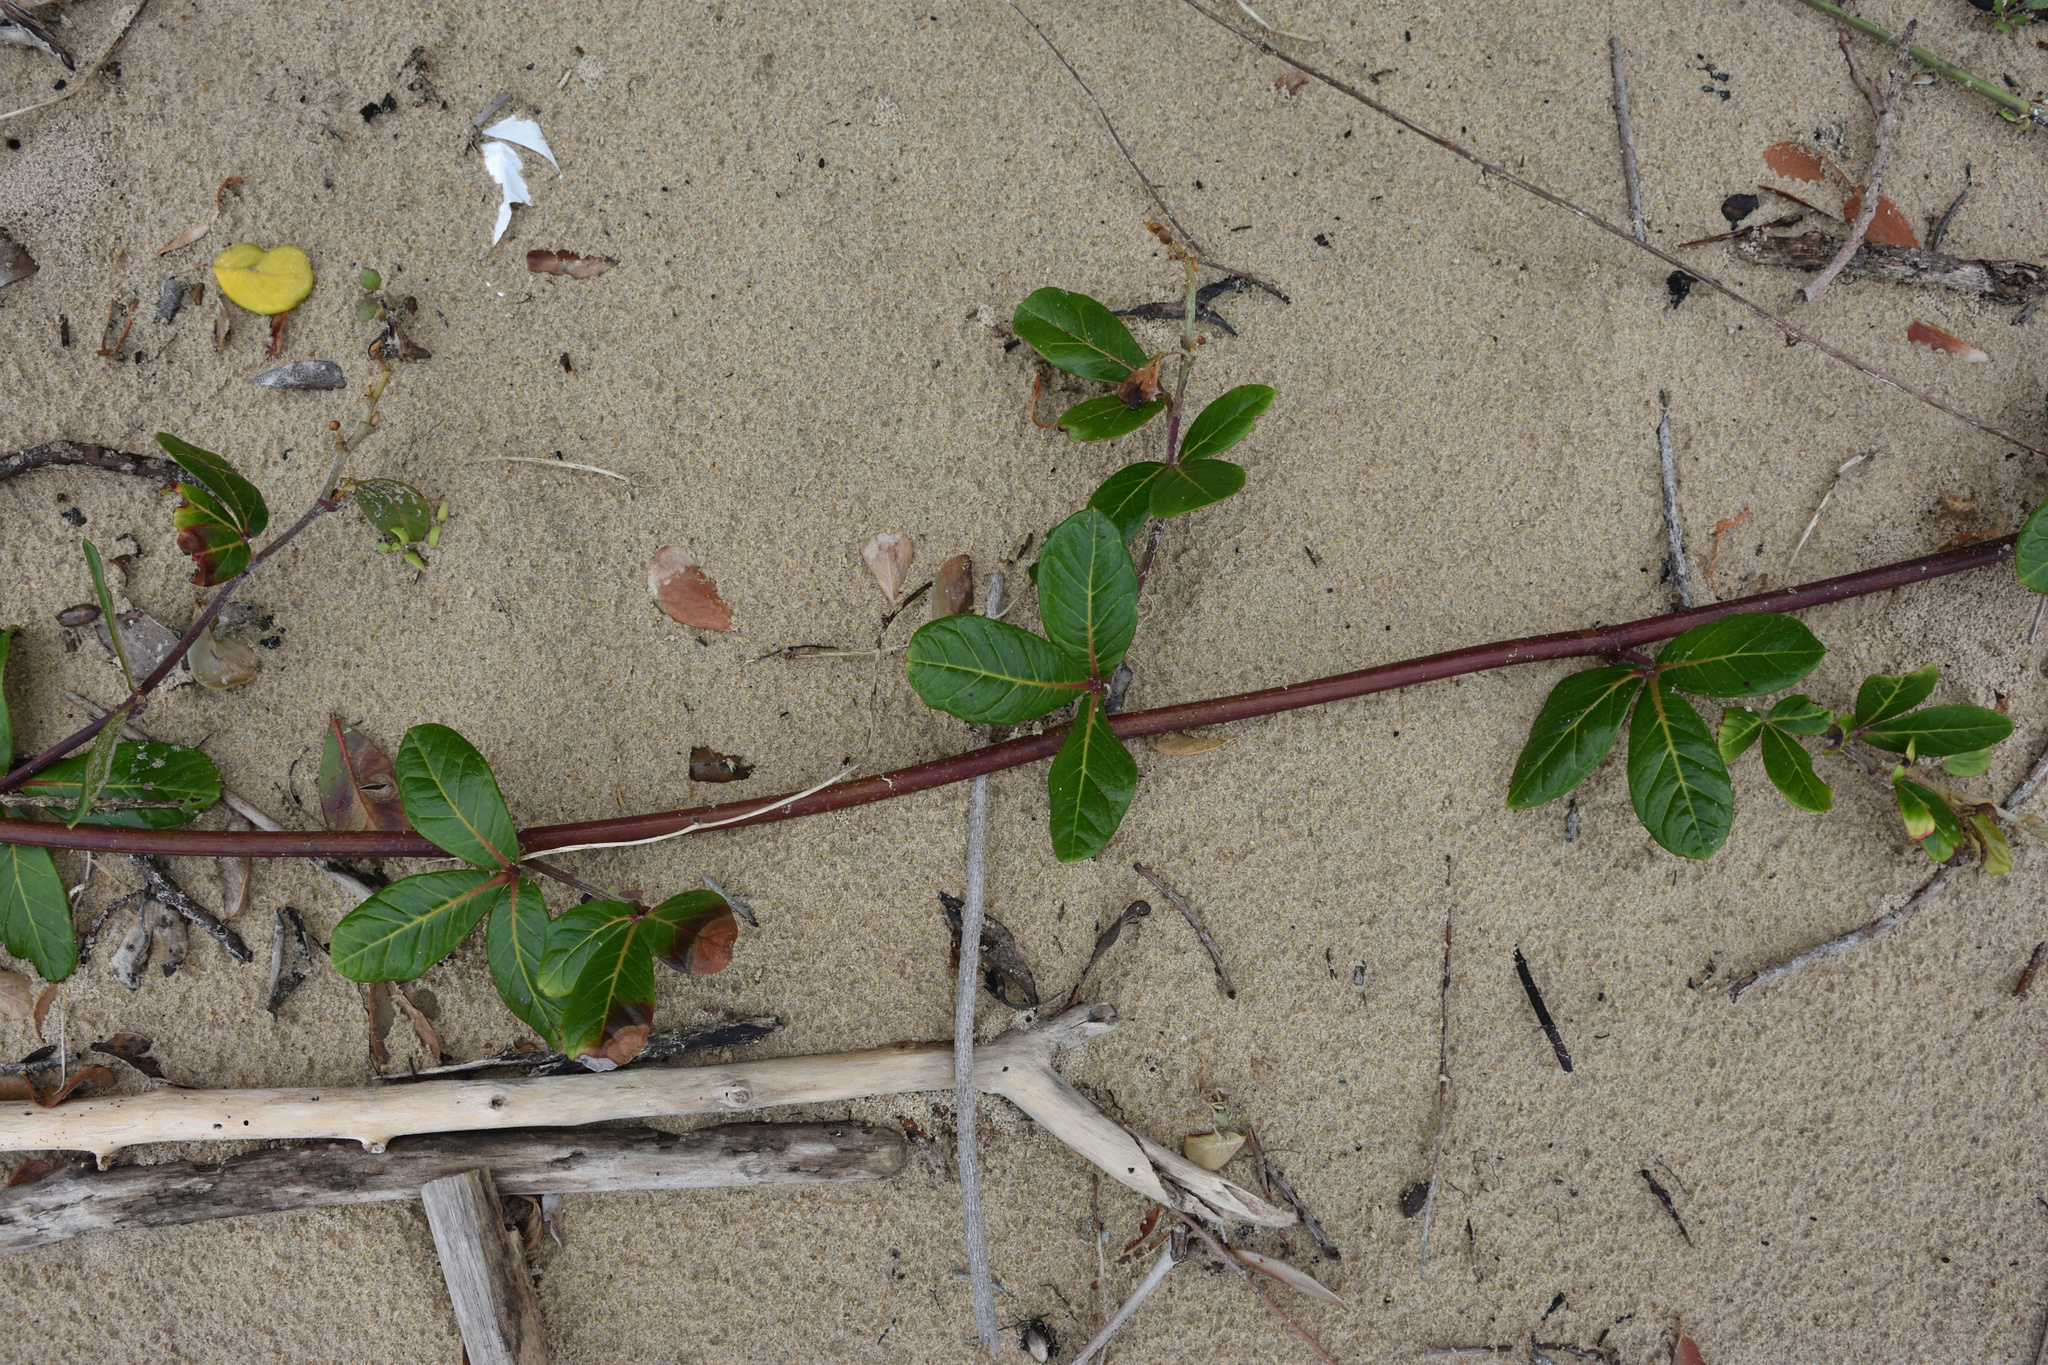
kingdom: Plantae
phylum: Tracheophyta
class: Magnoliopsida
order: Vitales
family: Vitaceae
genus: Rhoicissus
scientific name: Rhoicissus digitata
